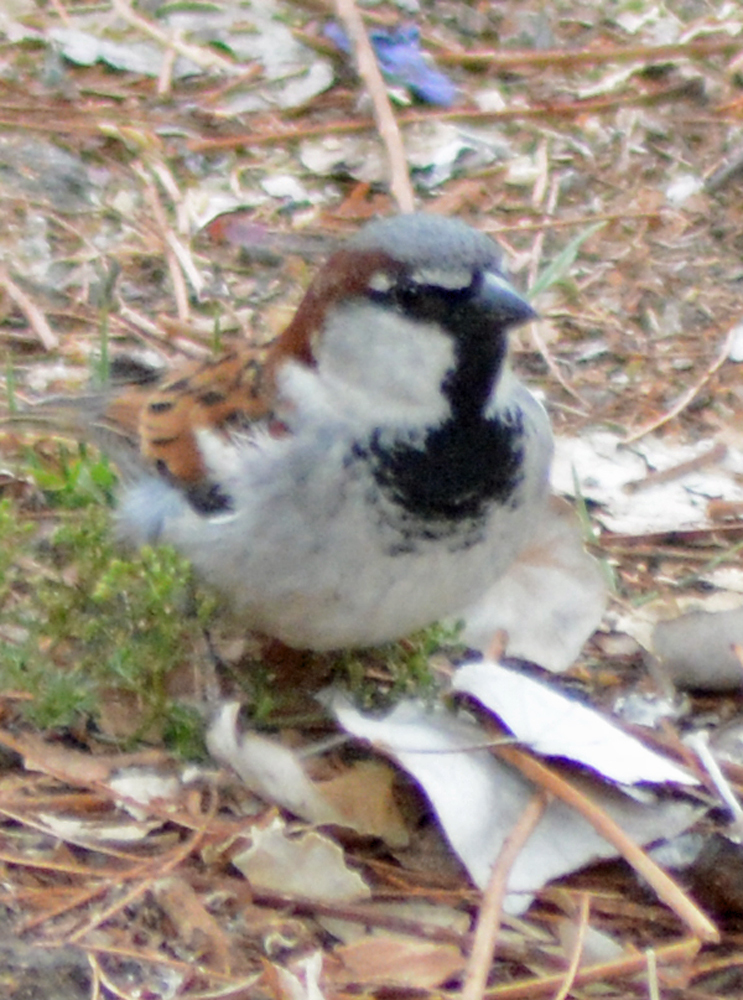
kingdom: Animalia
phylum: Chordata
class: Aves
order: Passeriformes
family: Passeridae
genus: Passer
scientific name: Passer domesticus
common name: House sparrow
